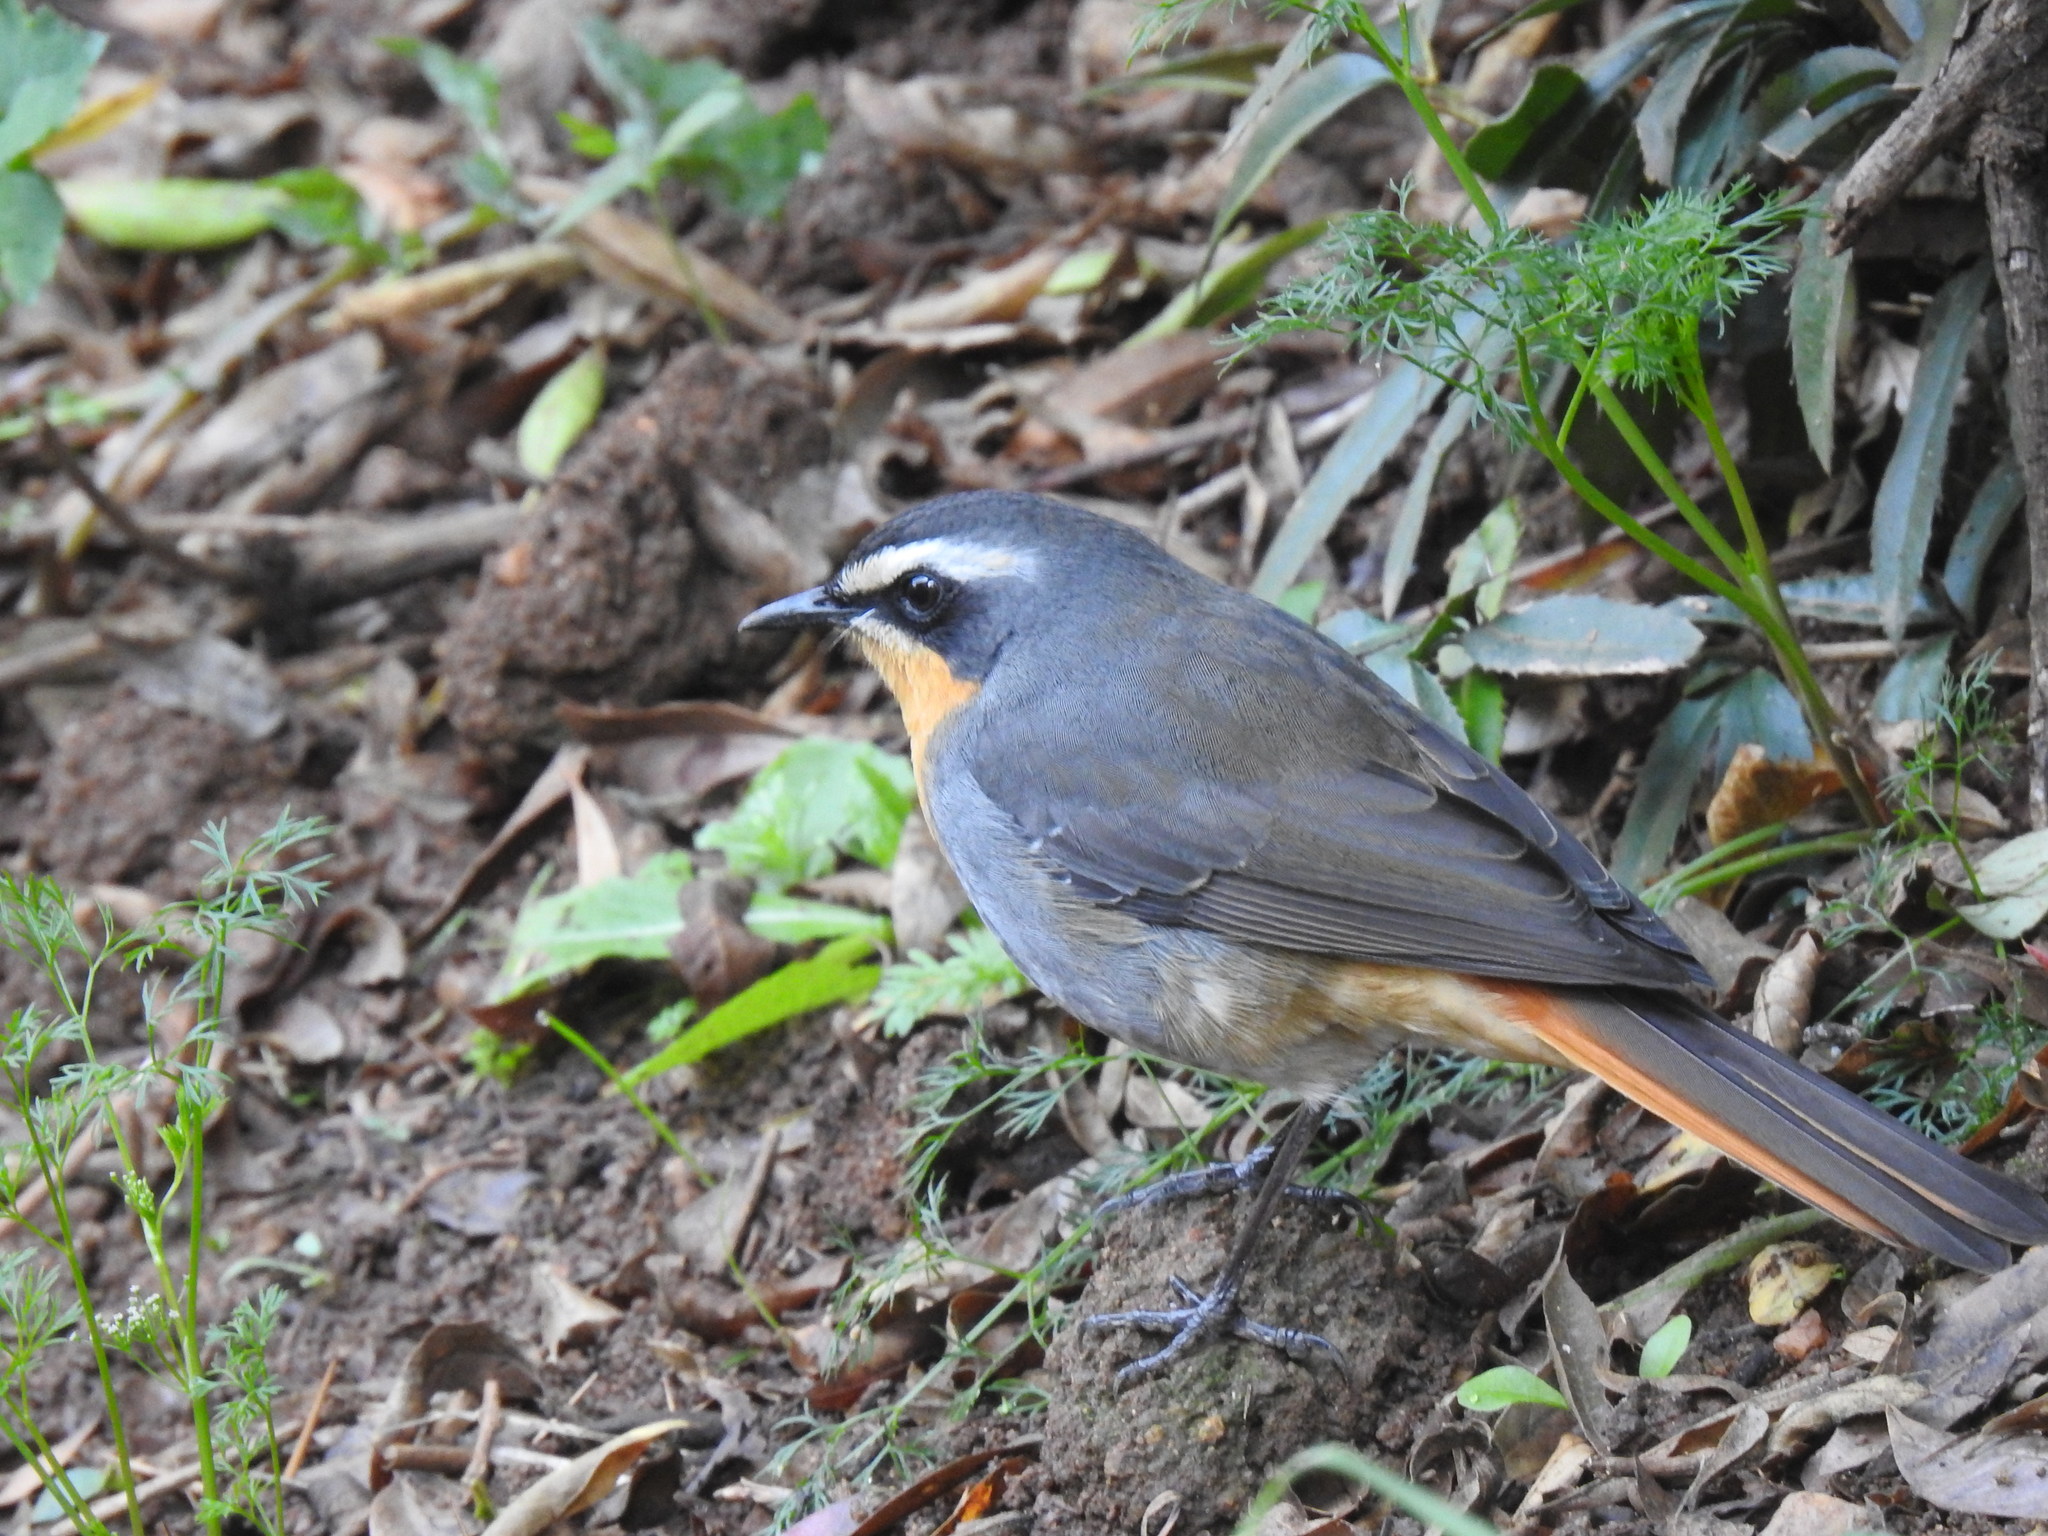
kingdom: Animalia
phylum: Chordata
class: Aves
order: Passeriformes
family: Muscicapidae
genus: Cossypha
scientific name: Cossypha caffra
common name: Cape robin-chat
